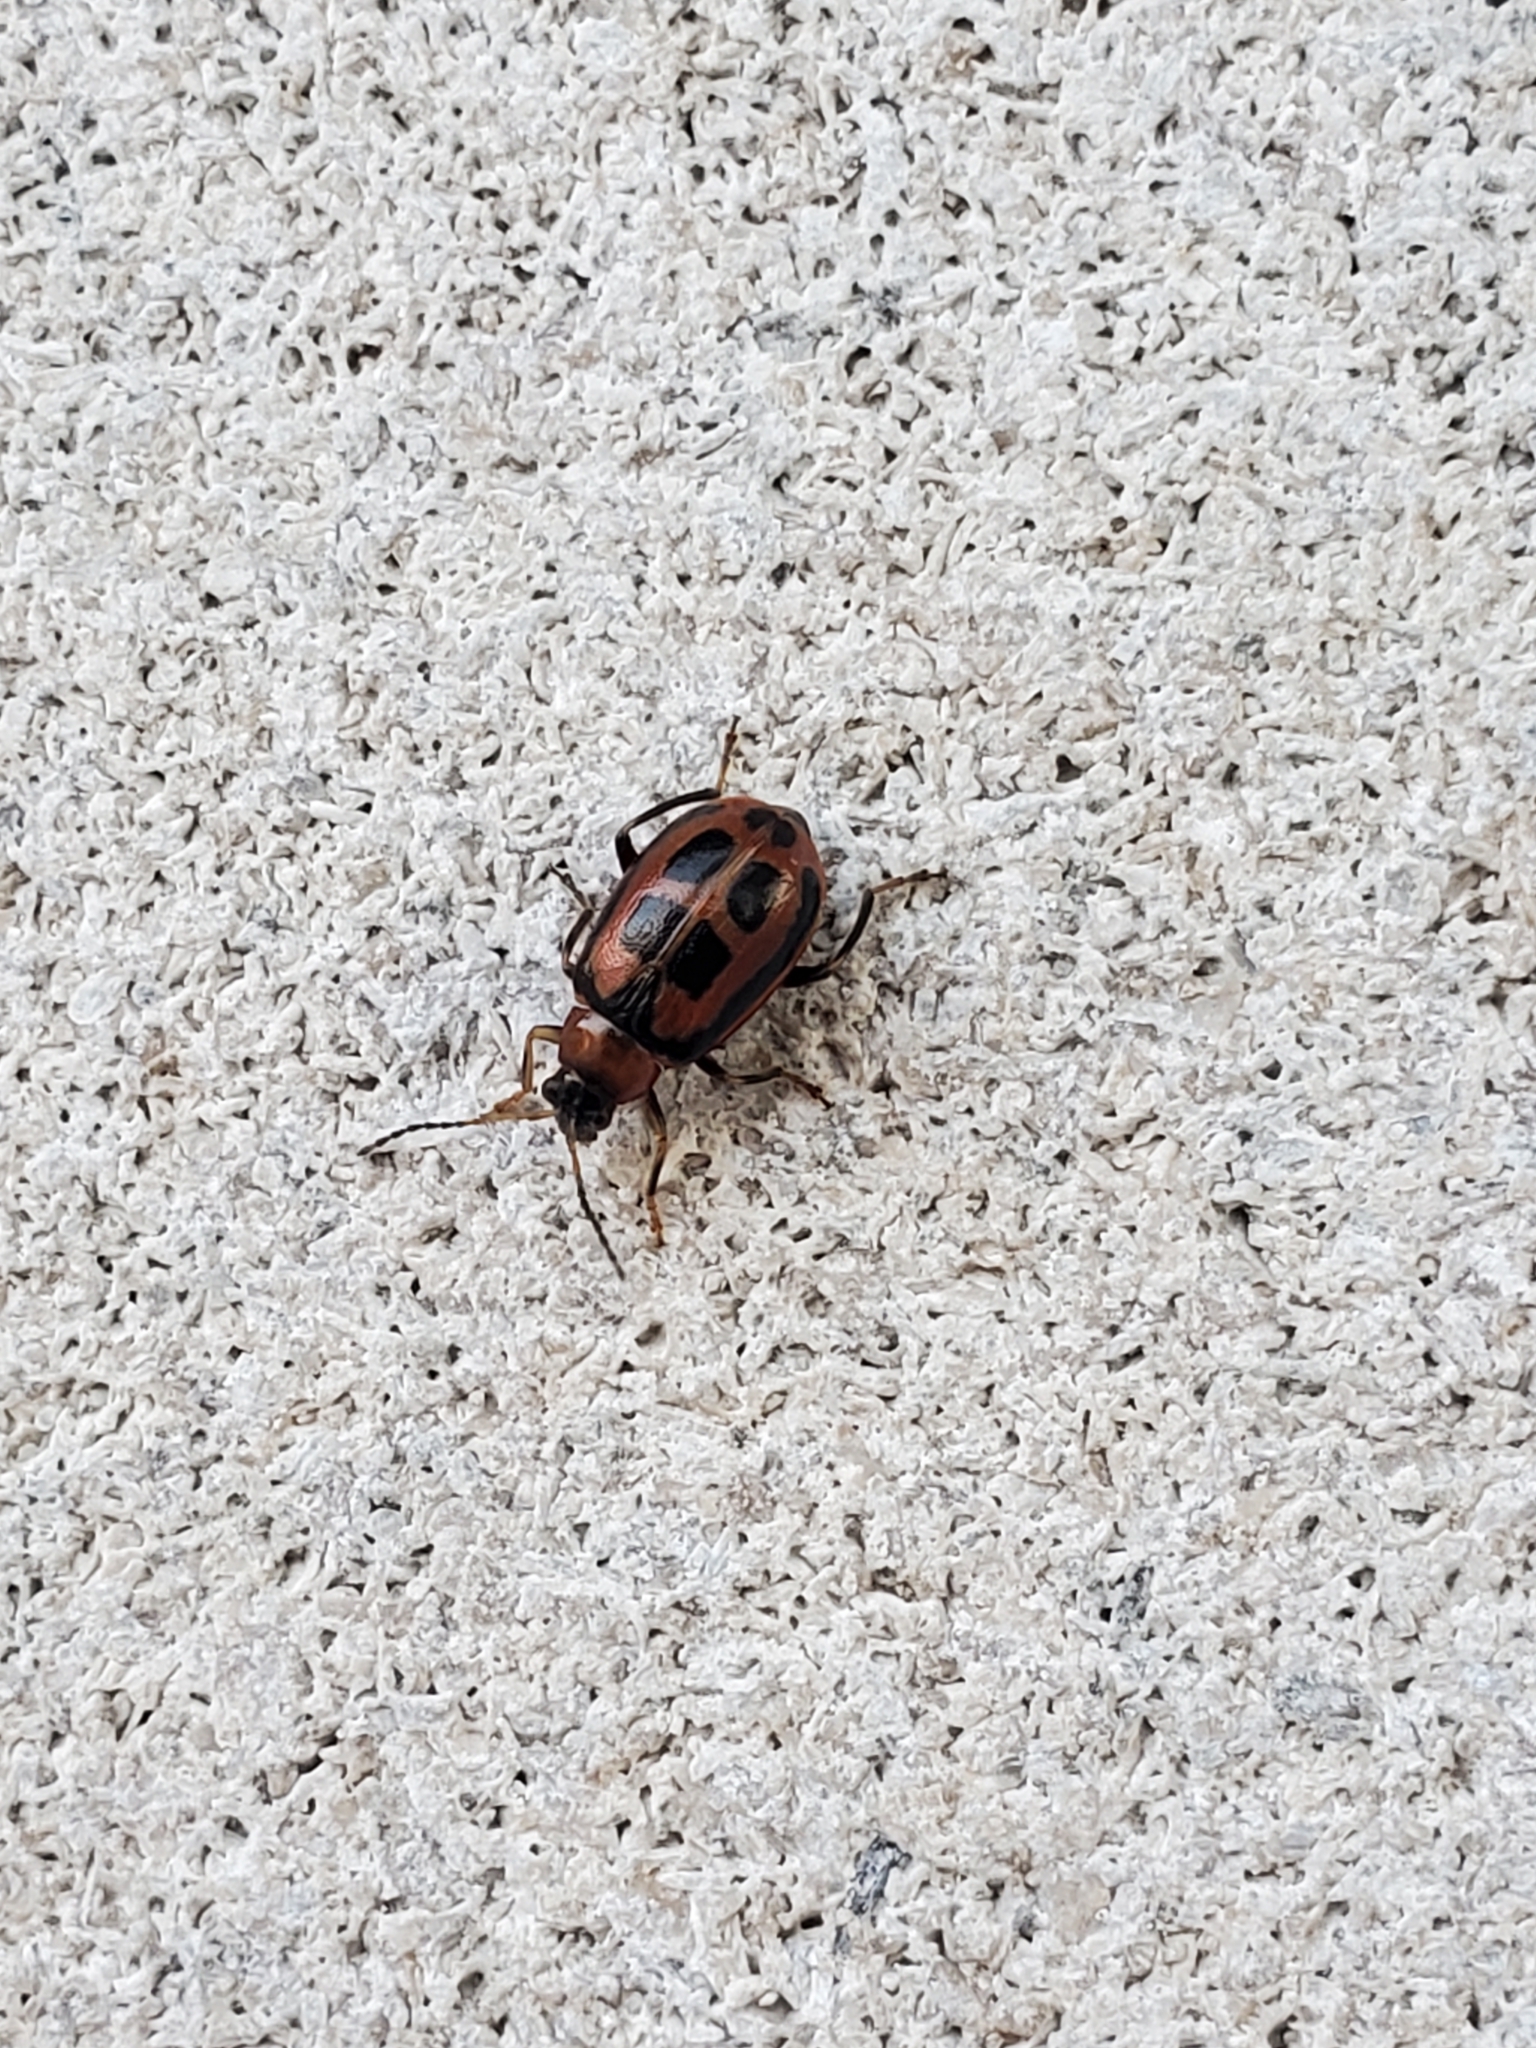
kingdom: Animalia
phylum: Arthropoda
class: Insecta
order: Coleoptera
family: Chrysomelidae
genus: Cerotoma
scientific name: Cerotoma trifurcata
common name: Bean leaf beetle
